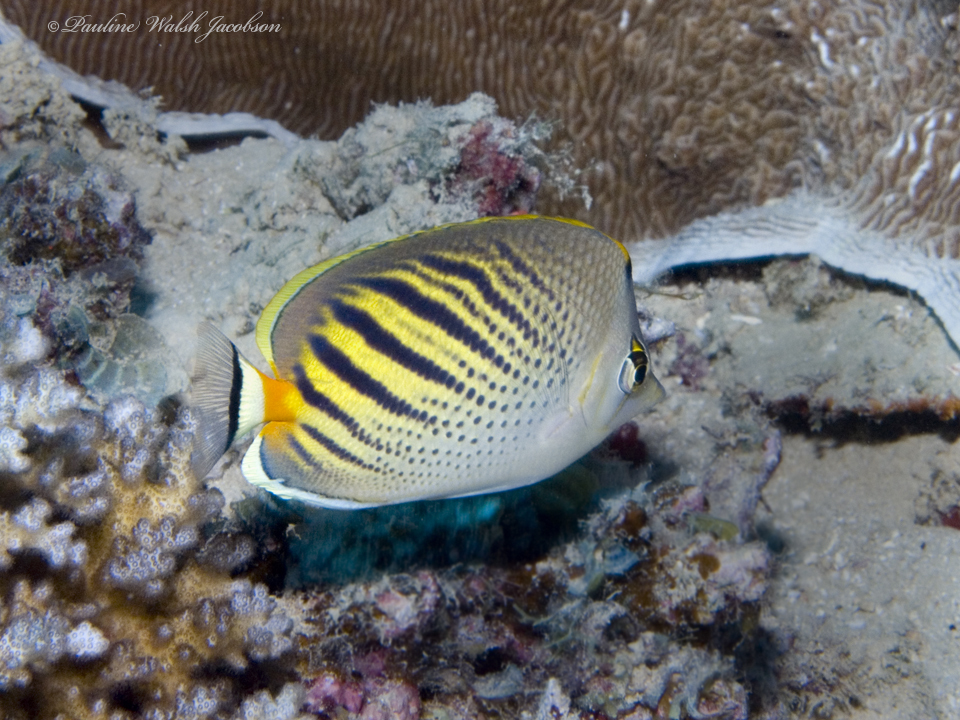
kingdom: Animalia
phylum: Chordata
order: Perciformes
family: Chaetodontidae
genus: Chaetodon
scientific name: Chaetodon pelewensis
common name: Dot-and-dash butterflyfish
